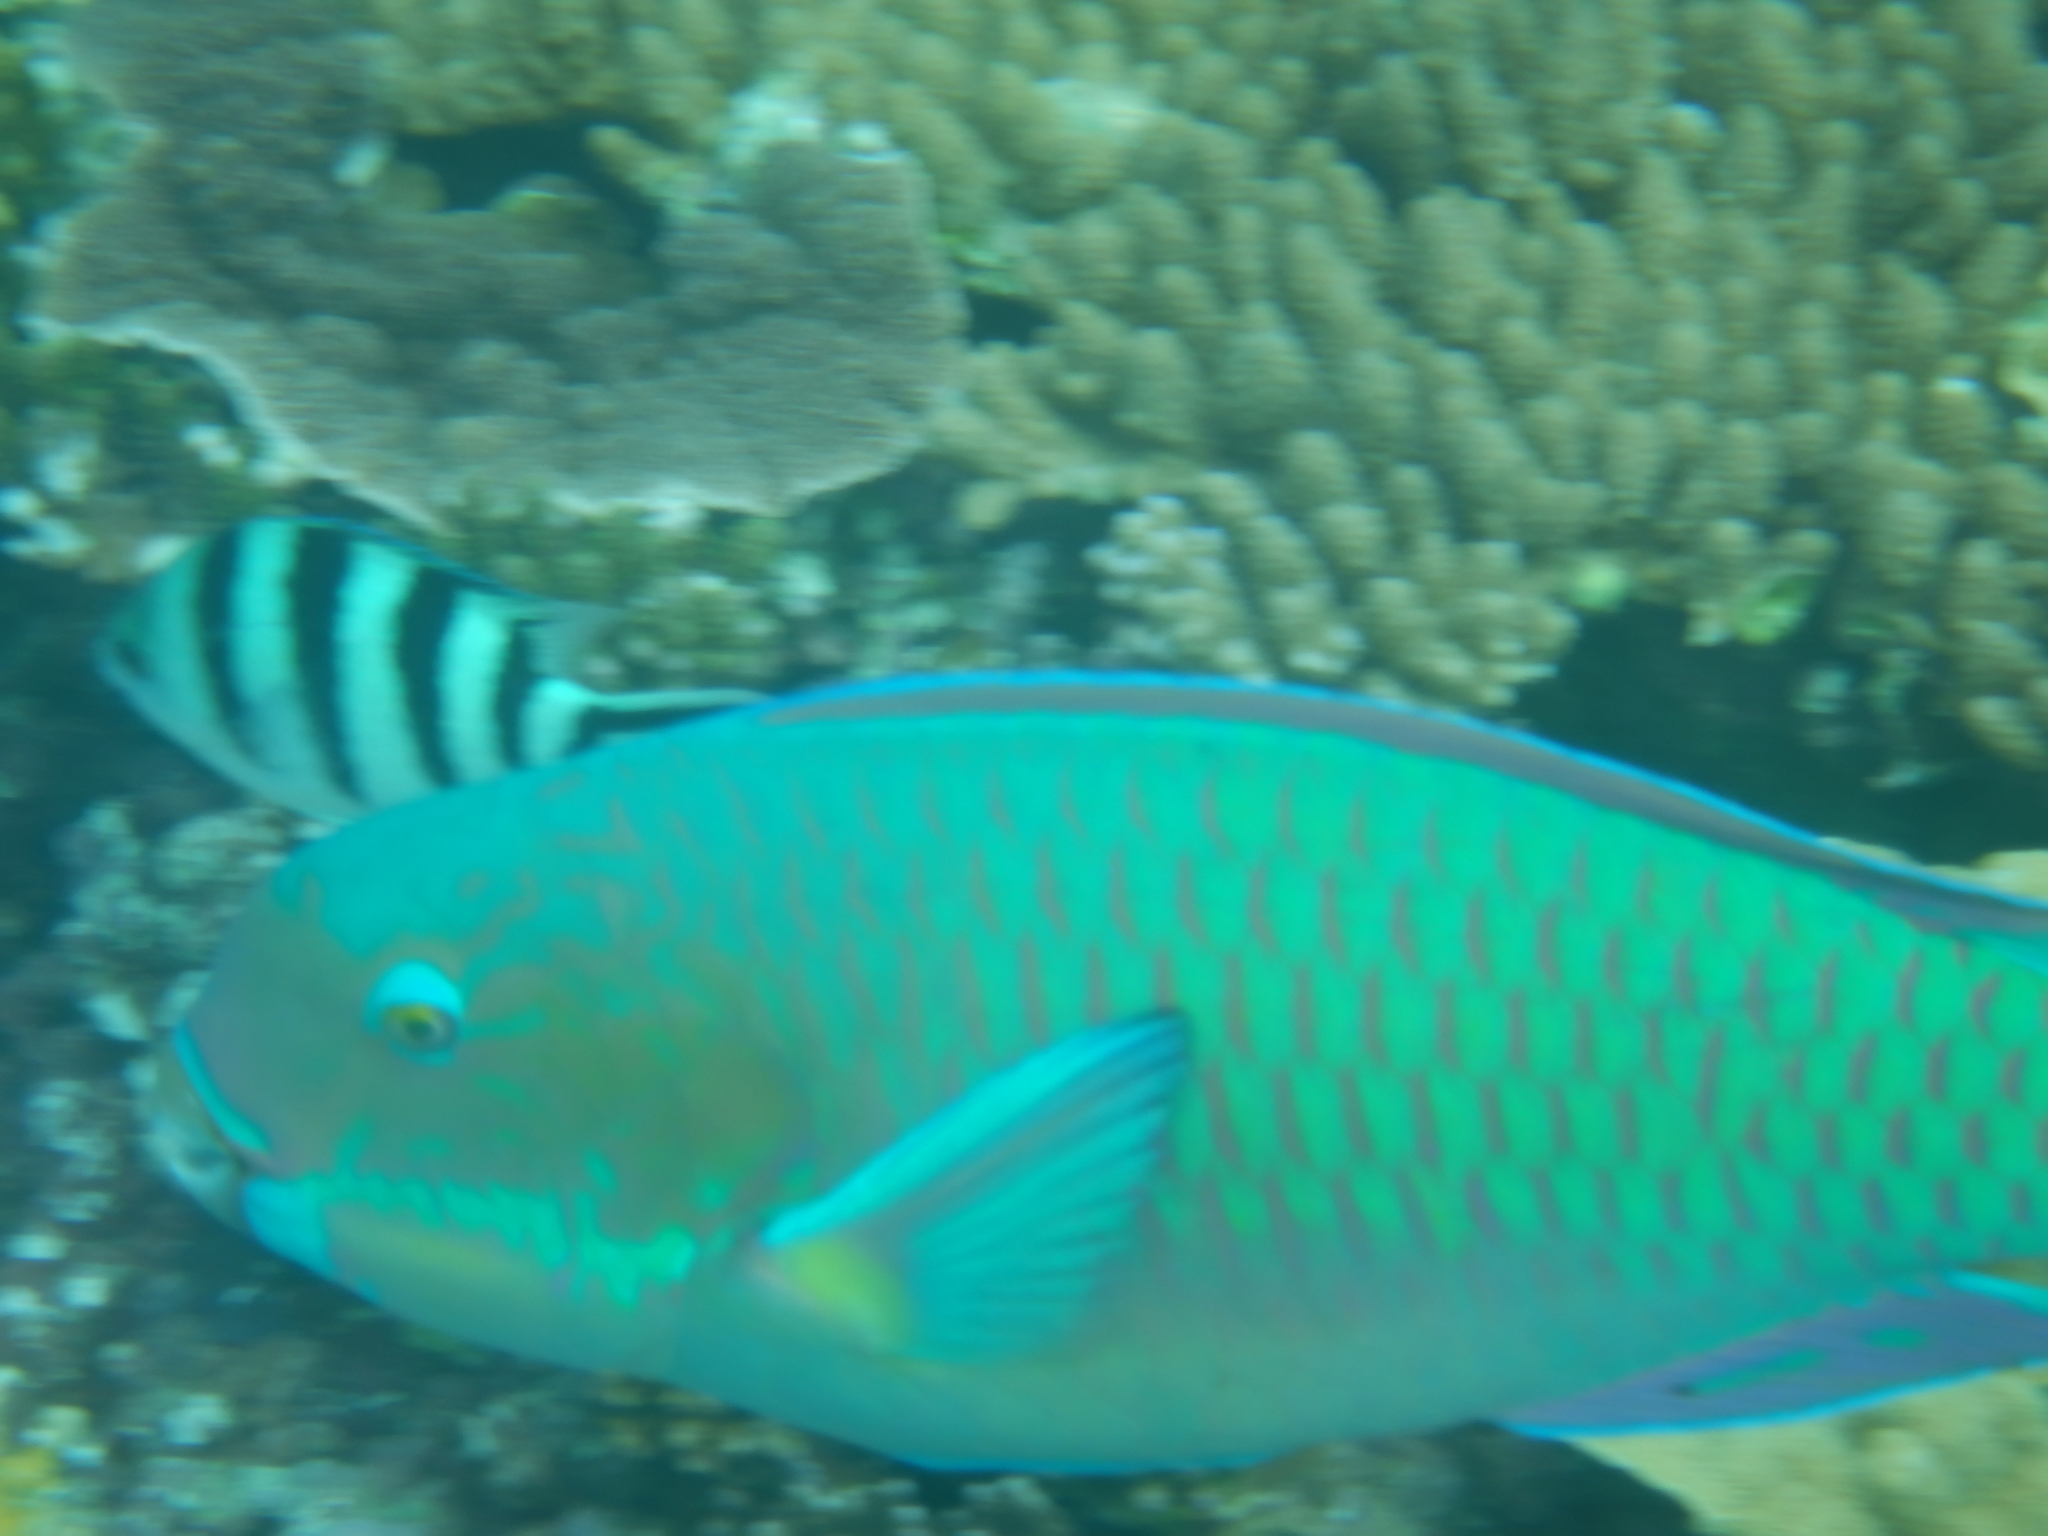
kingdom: Animalia
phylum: Chordata
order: Perciformes
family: Scaridae
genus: Chlorurus
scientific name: Chlorurus microrhinos
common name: Steephead parrotfish
